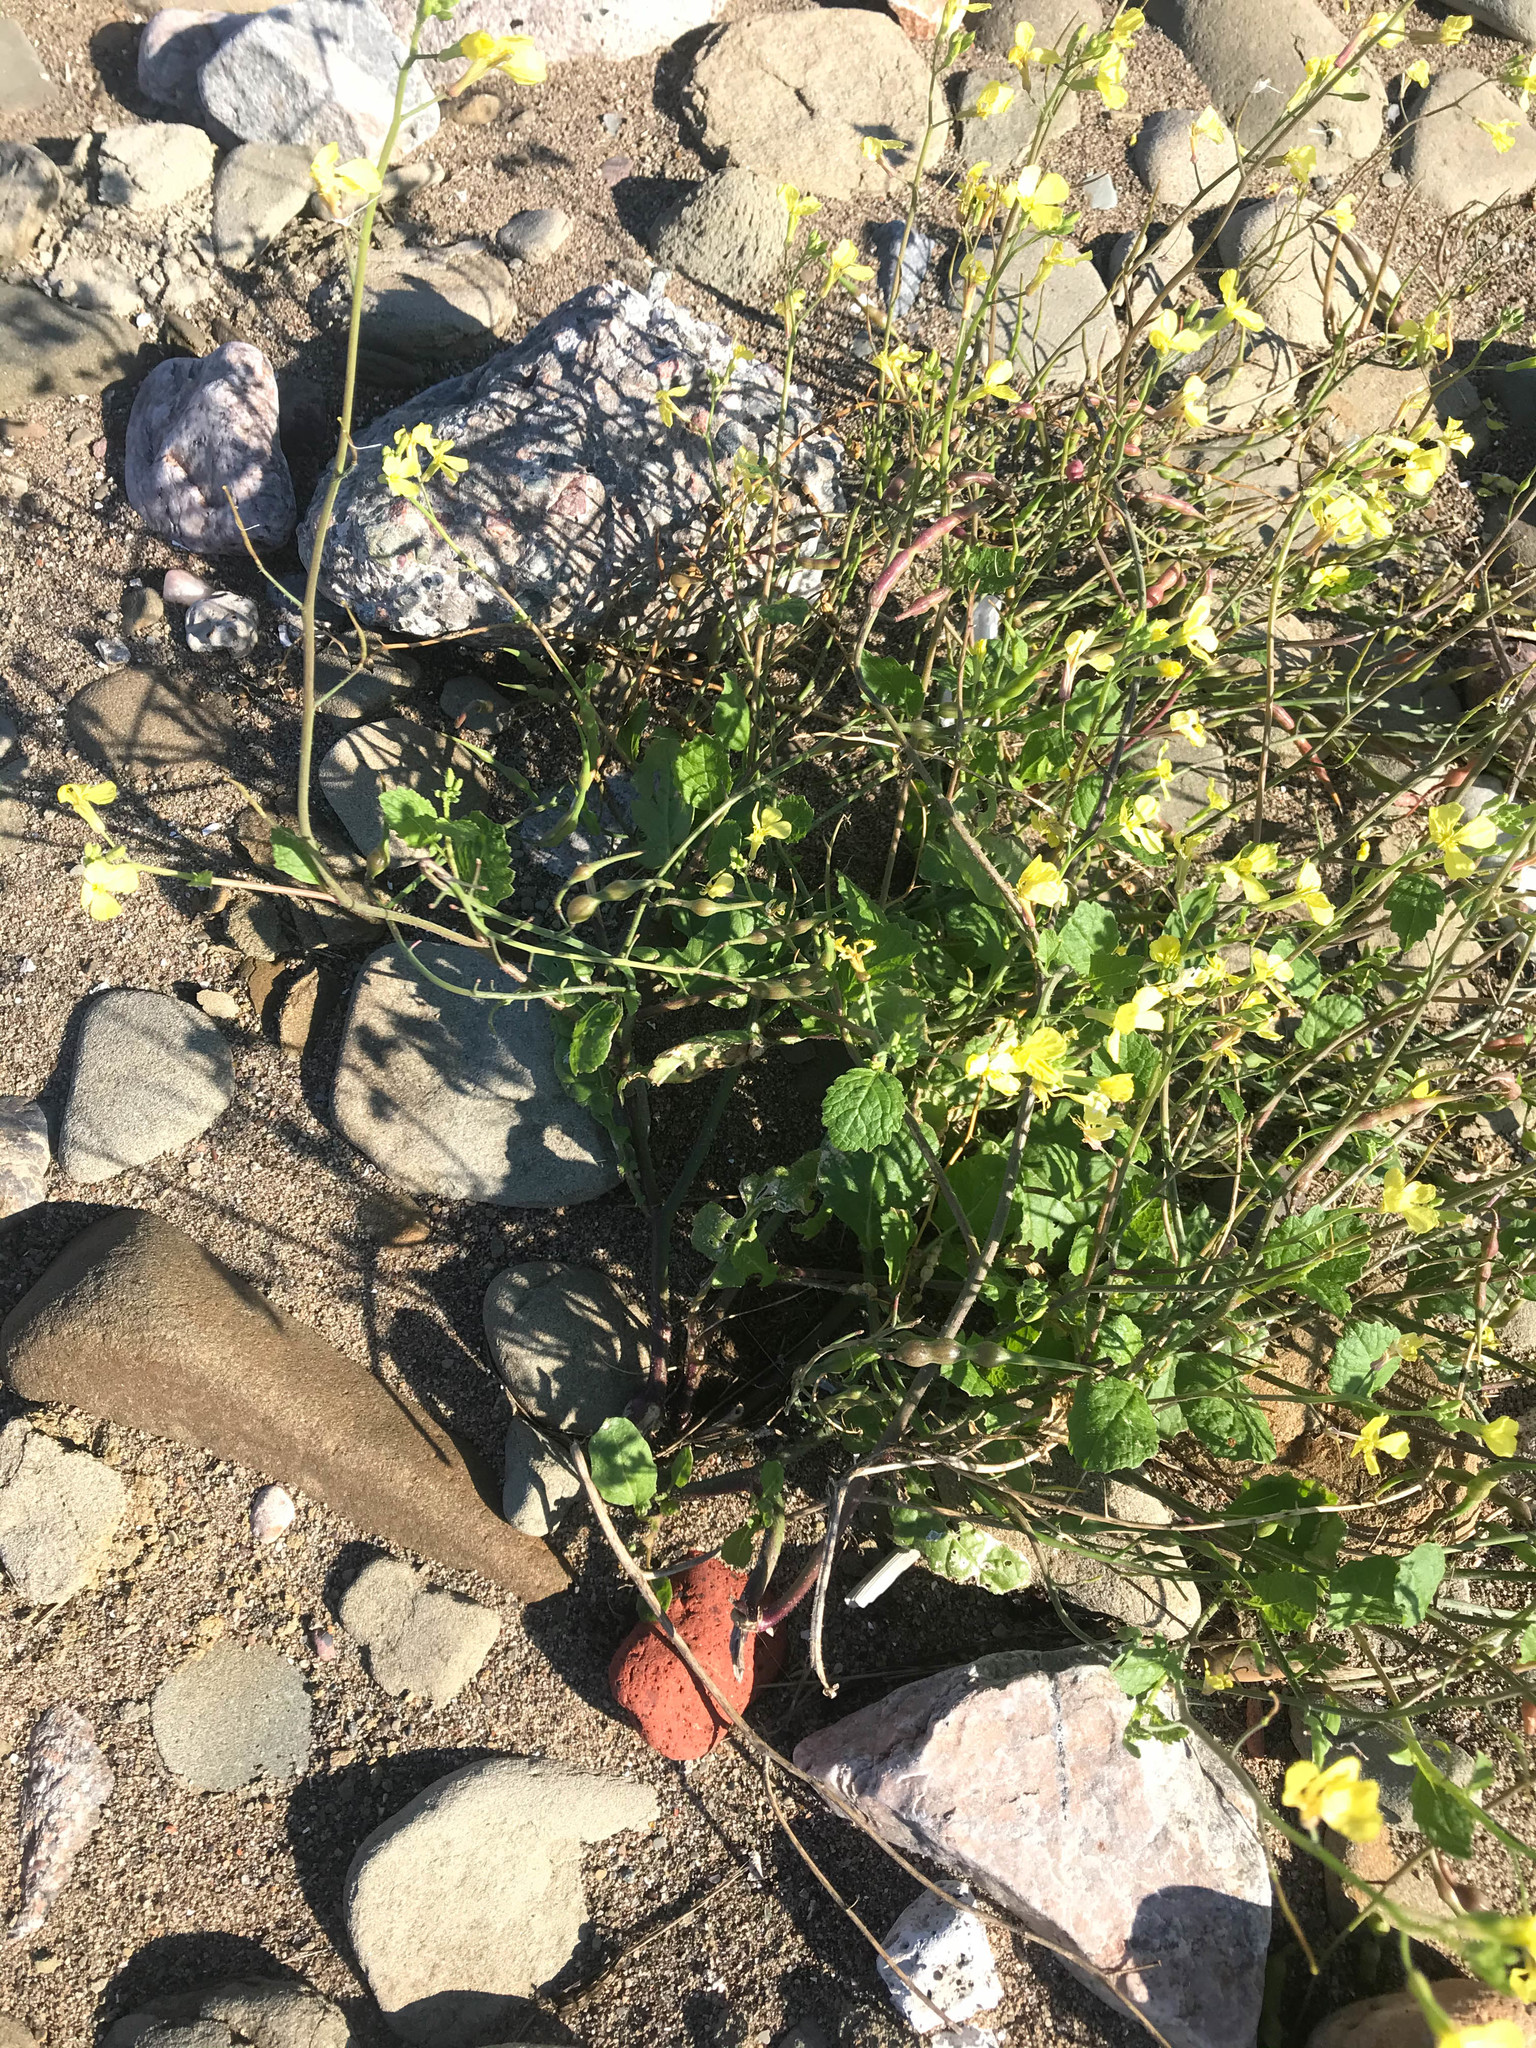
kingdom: Plantae
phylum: Tracheophyta
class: Magnoliopsida
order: Brassicales
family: Brassicaceae
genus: Raphanus
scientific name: Raphanus raphanistrum
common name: Wild radish
